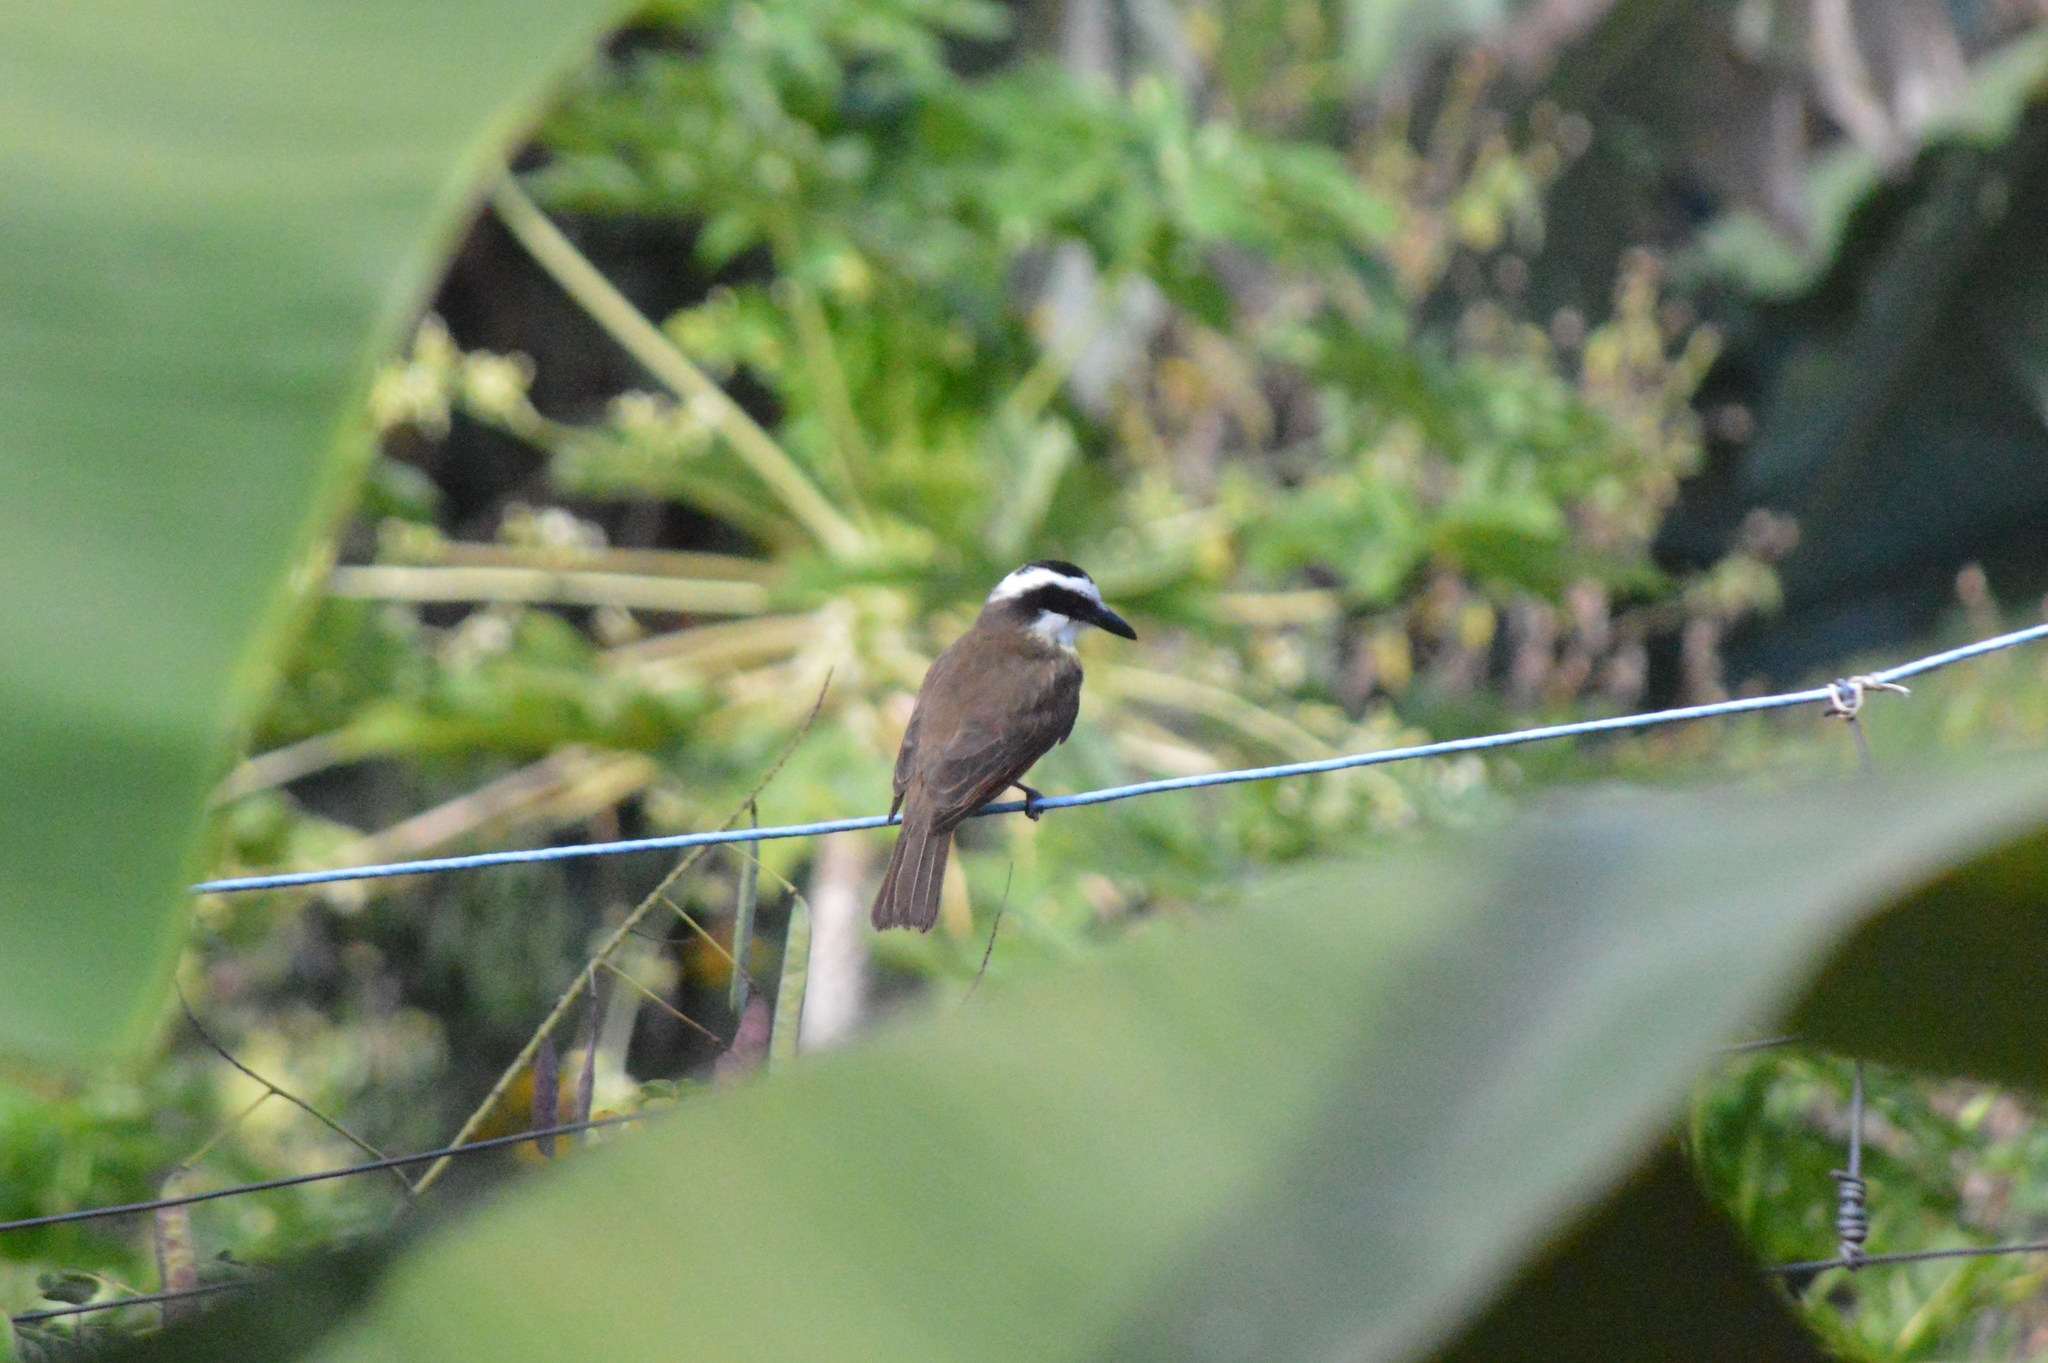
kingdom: Animalia
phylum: Chordata
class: Aves
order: Passeriformes
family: Tyrannidae
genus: Pitangus
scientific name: Pitangus sulphuratus
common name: Great kiskadee
